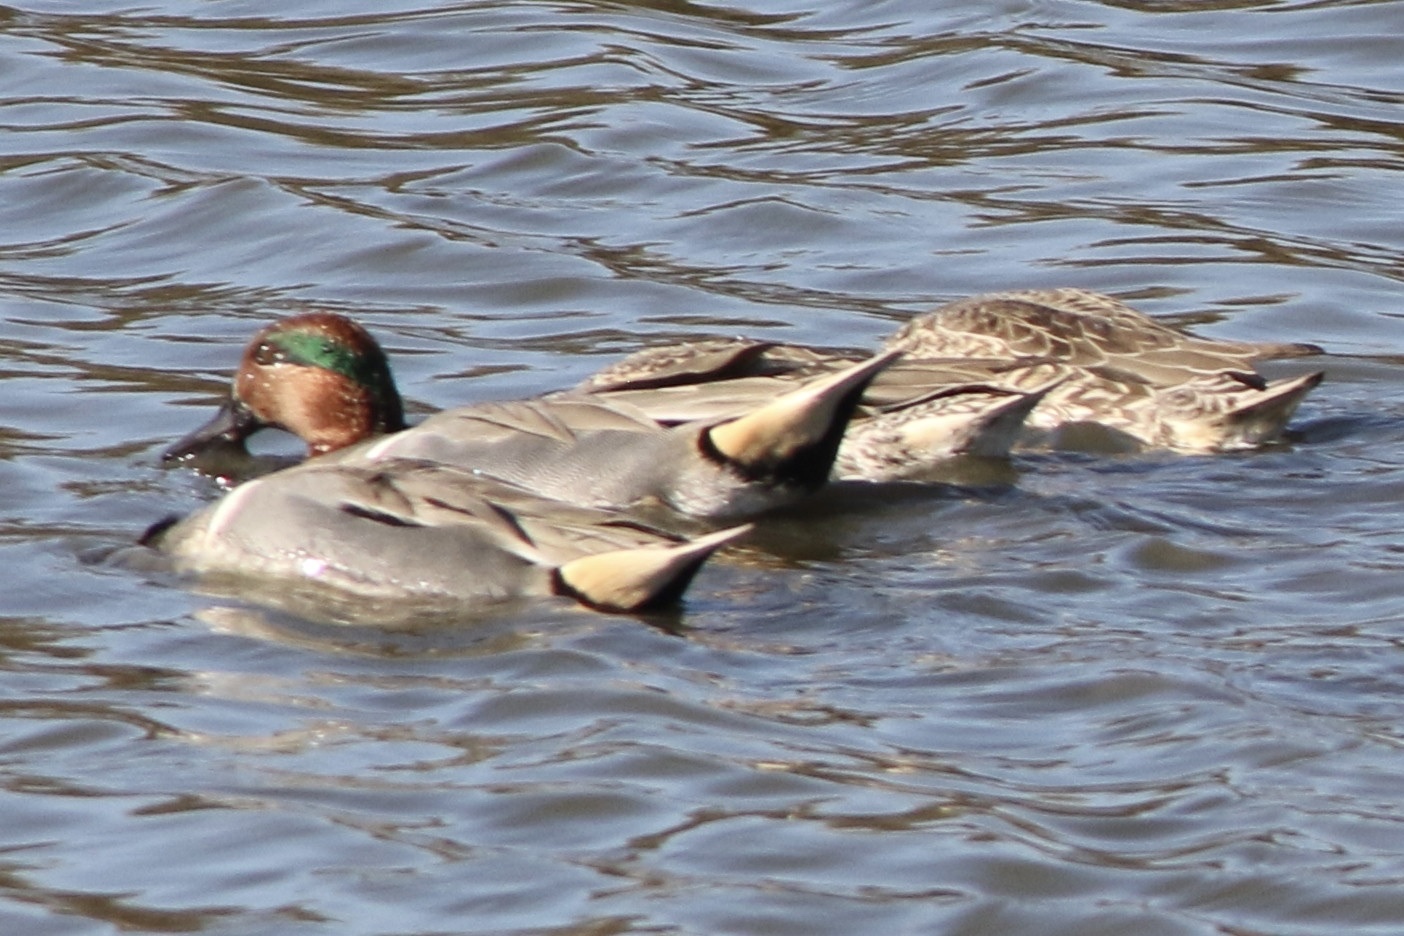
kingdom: Animalia
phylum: Chordata
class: Aves
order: Anseriformes
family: Anatidae
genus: Anas
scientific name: Anas crecca
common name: Eurasian teal
